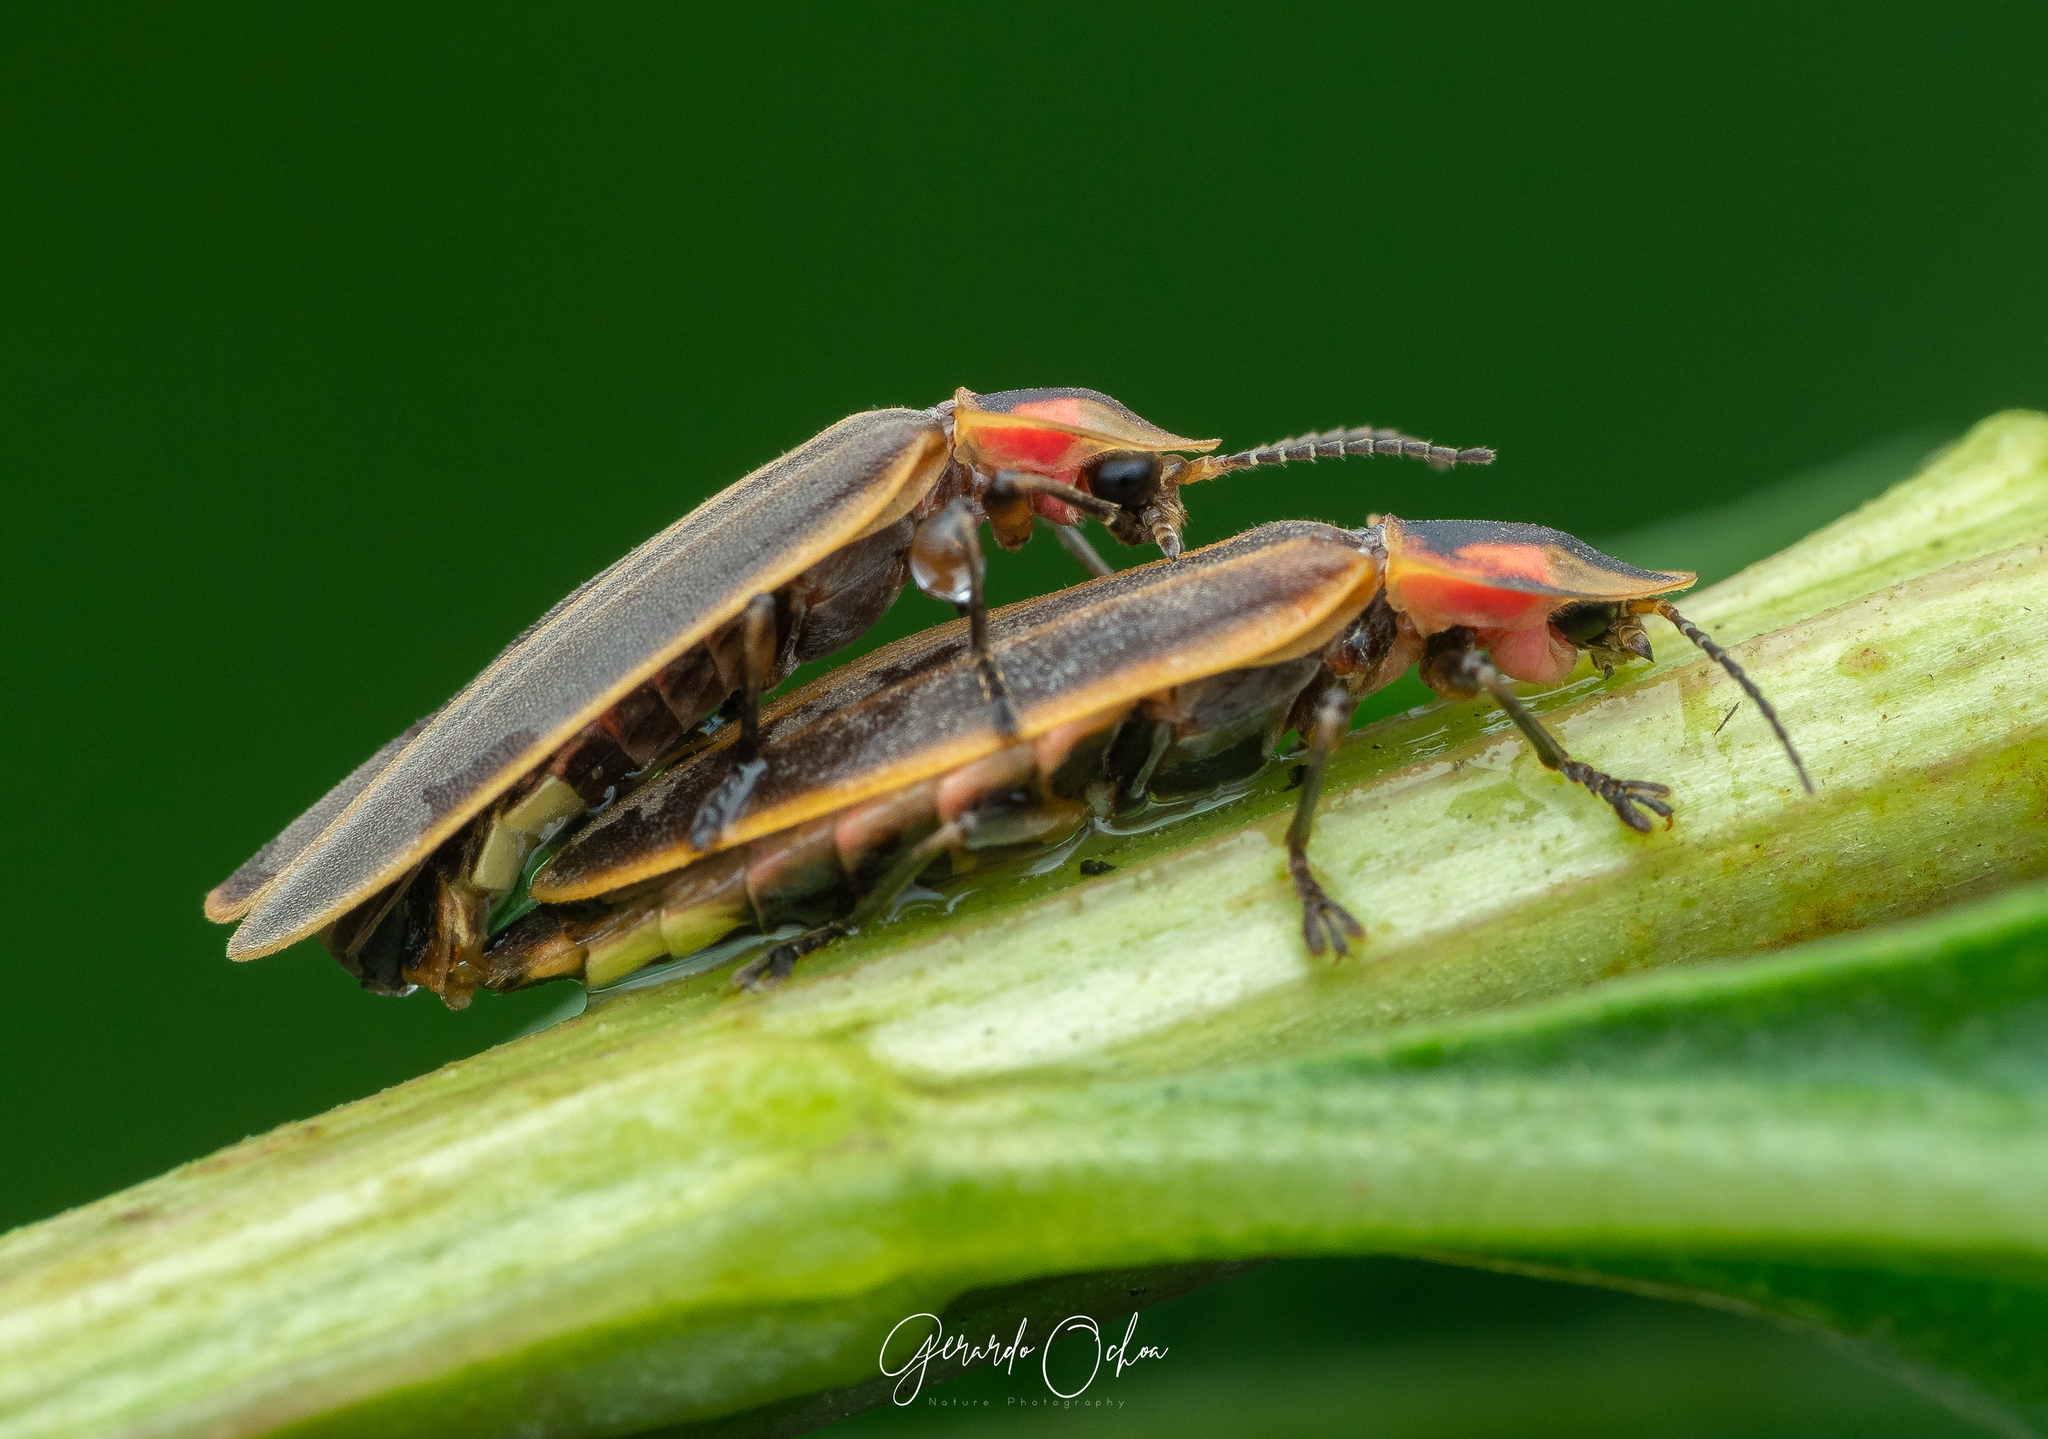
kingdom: Animalia
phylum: Arthropoda
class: Insecta
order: Coleoptera
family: Lampyridae
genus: Pyractomena
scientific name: Pyractomena striatella
